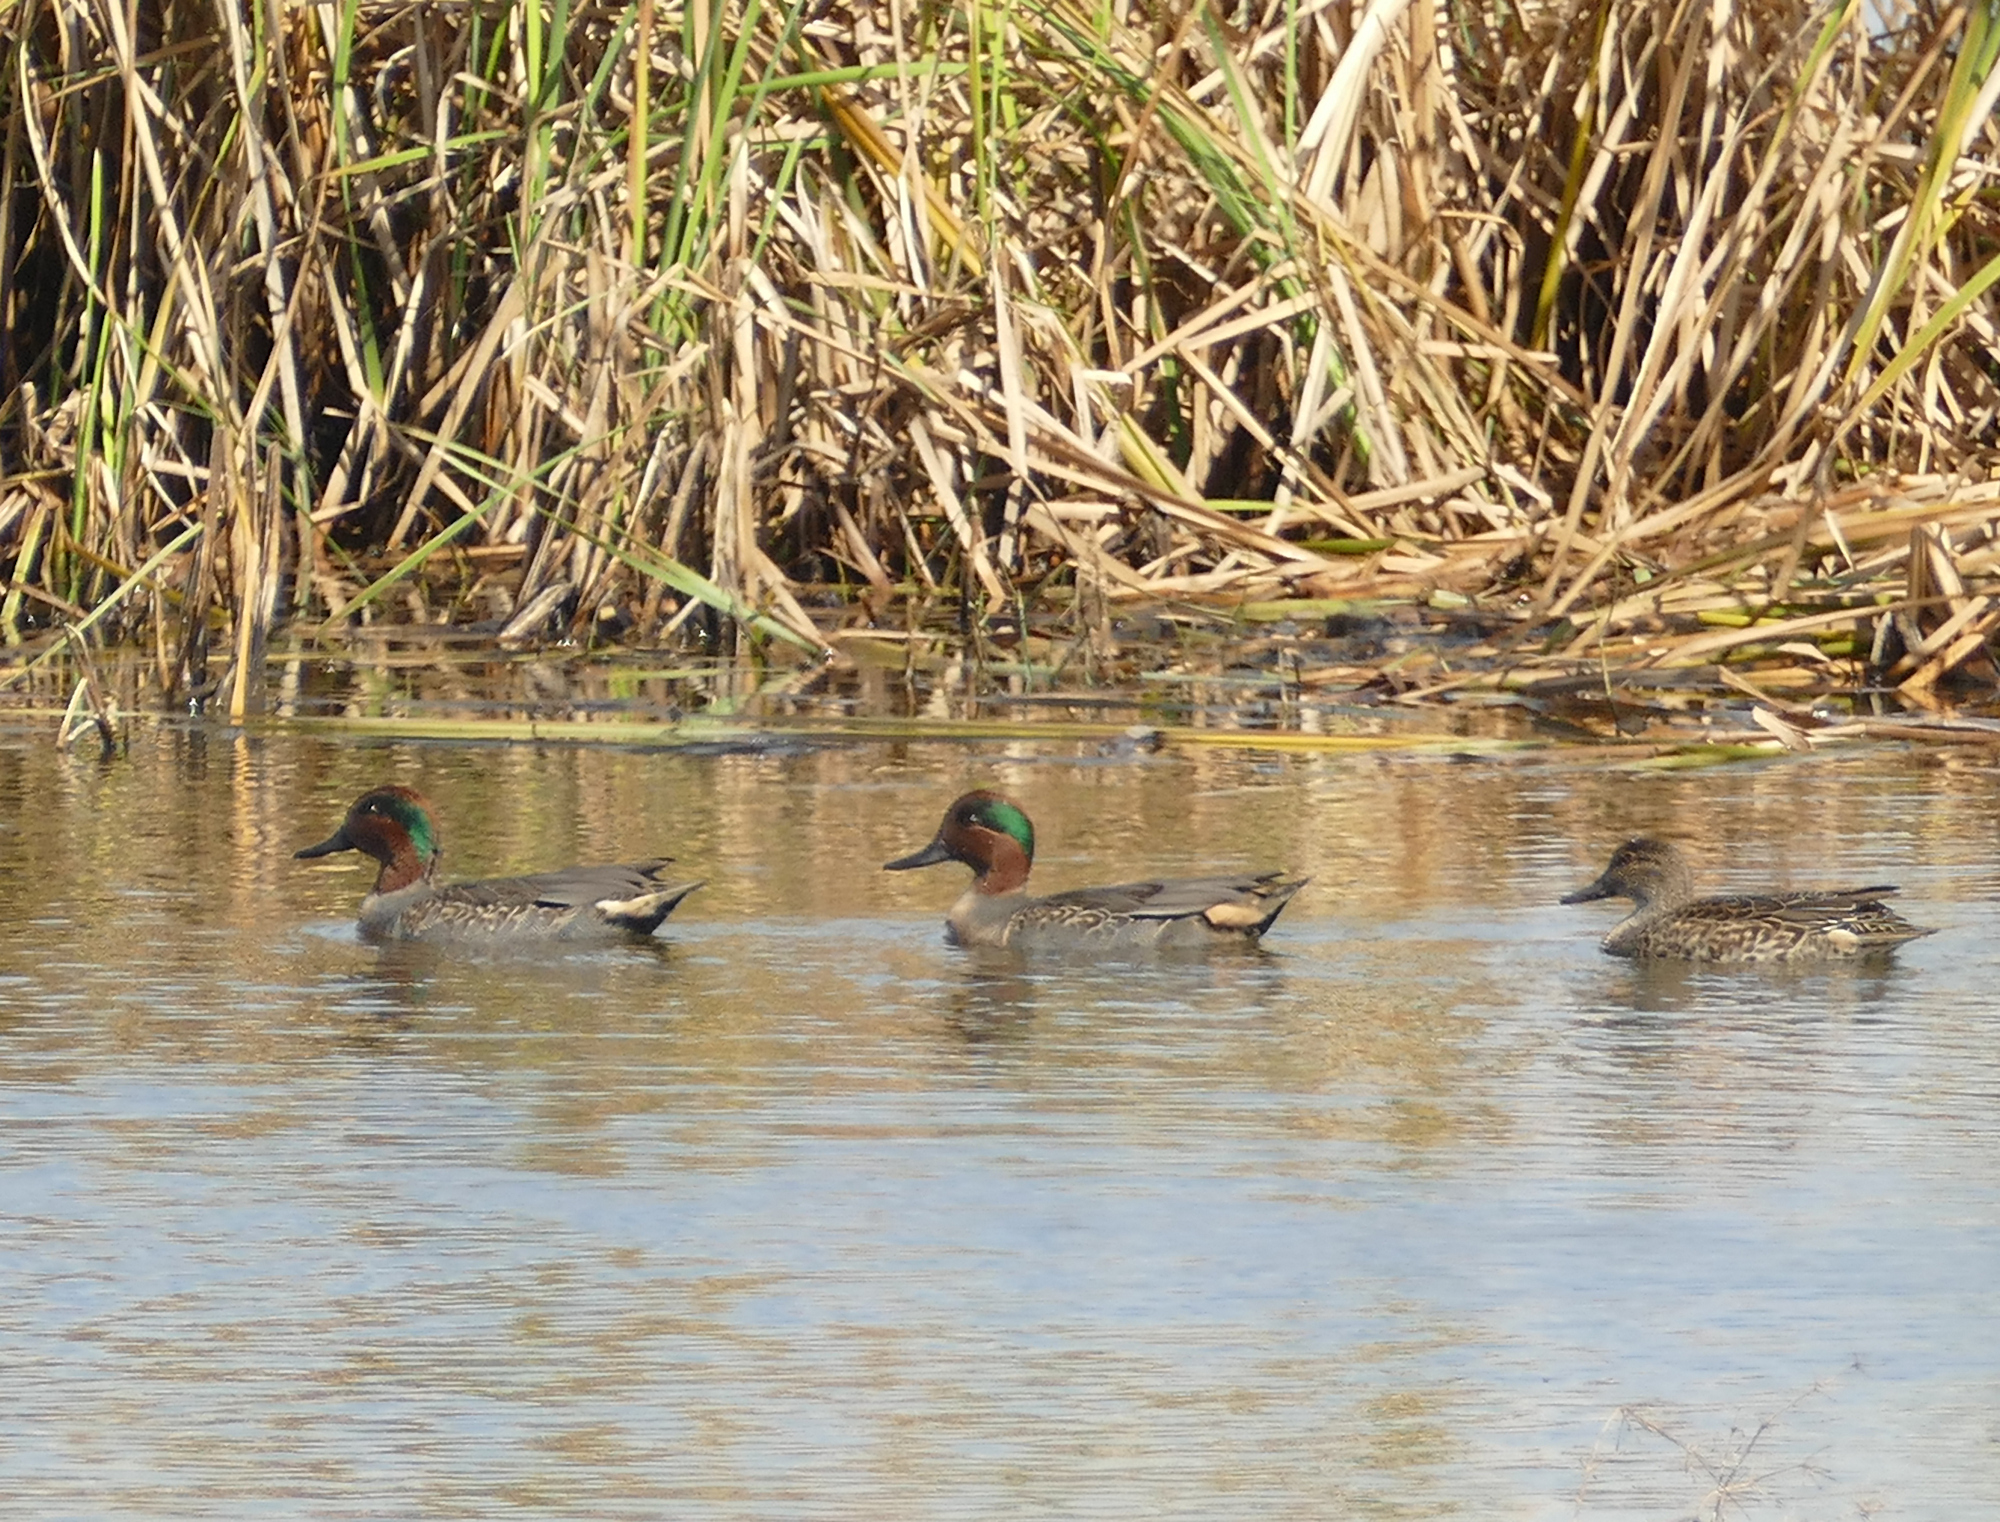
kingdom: Animalia
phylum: Chordata
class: Aves
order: Anseriformes
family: Anatidae
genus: Anas
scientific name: Anas crecca
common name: Eurasian teal
